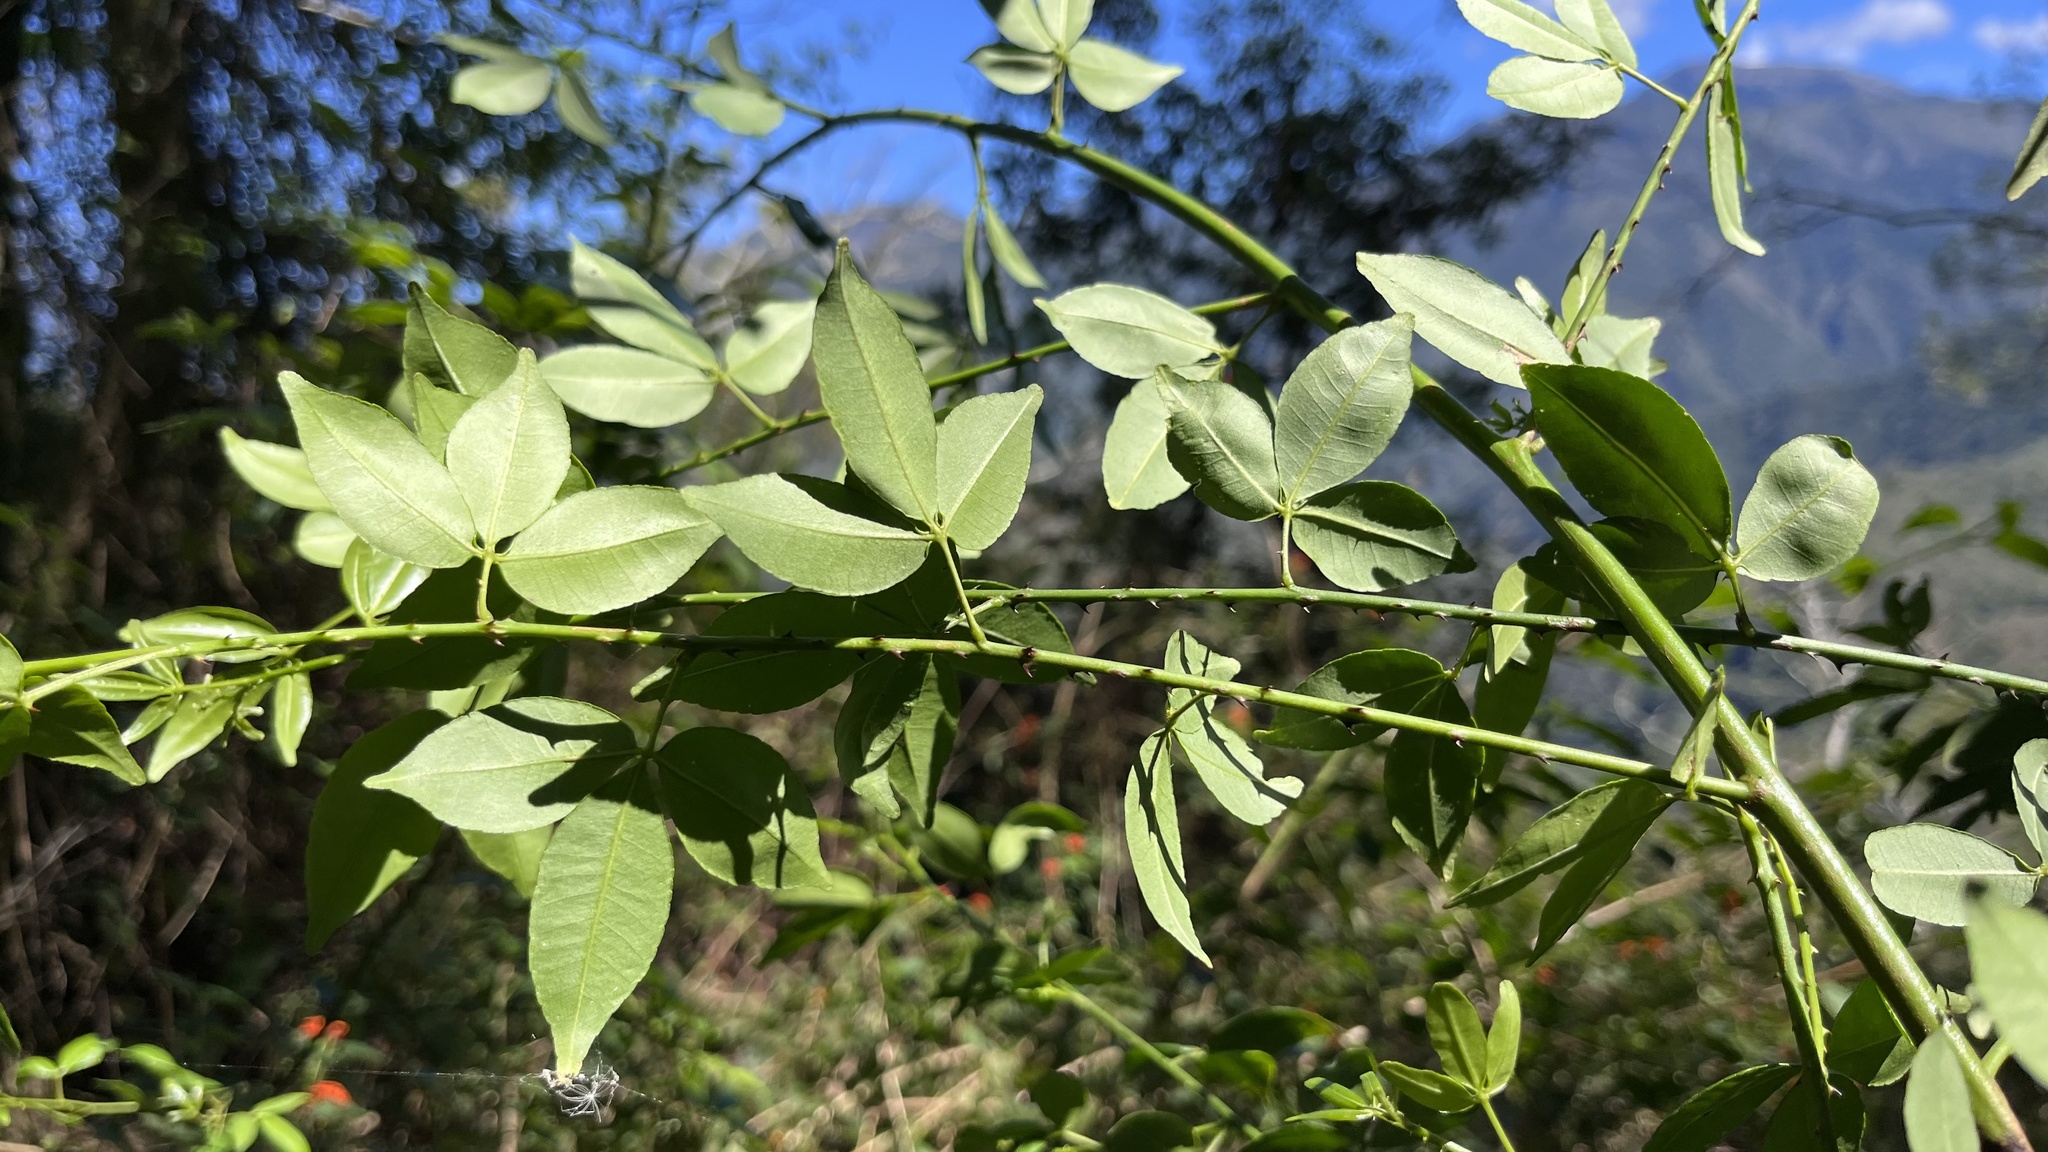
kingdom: Plantae
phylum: Tracheophyta
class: Magnoliopsida
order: Sapindales
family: Rutaceae
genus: Zanthoxylum
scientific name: Zanthoxylum asiaticum
